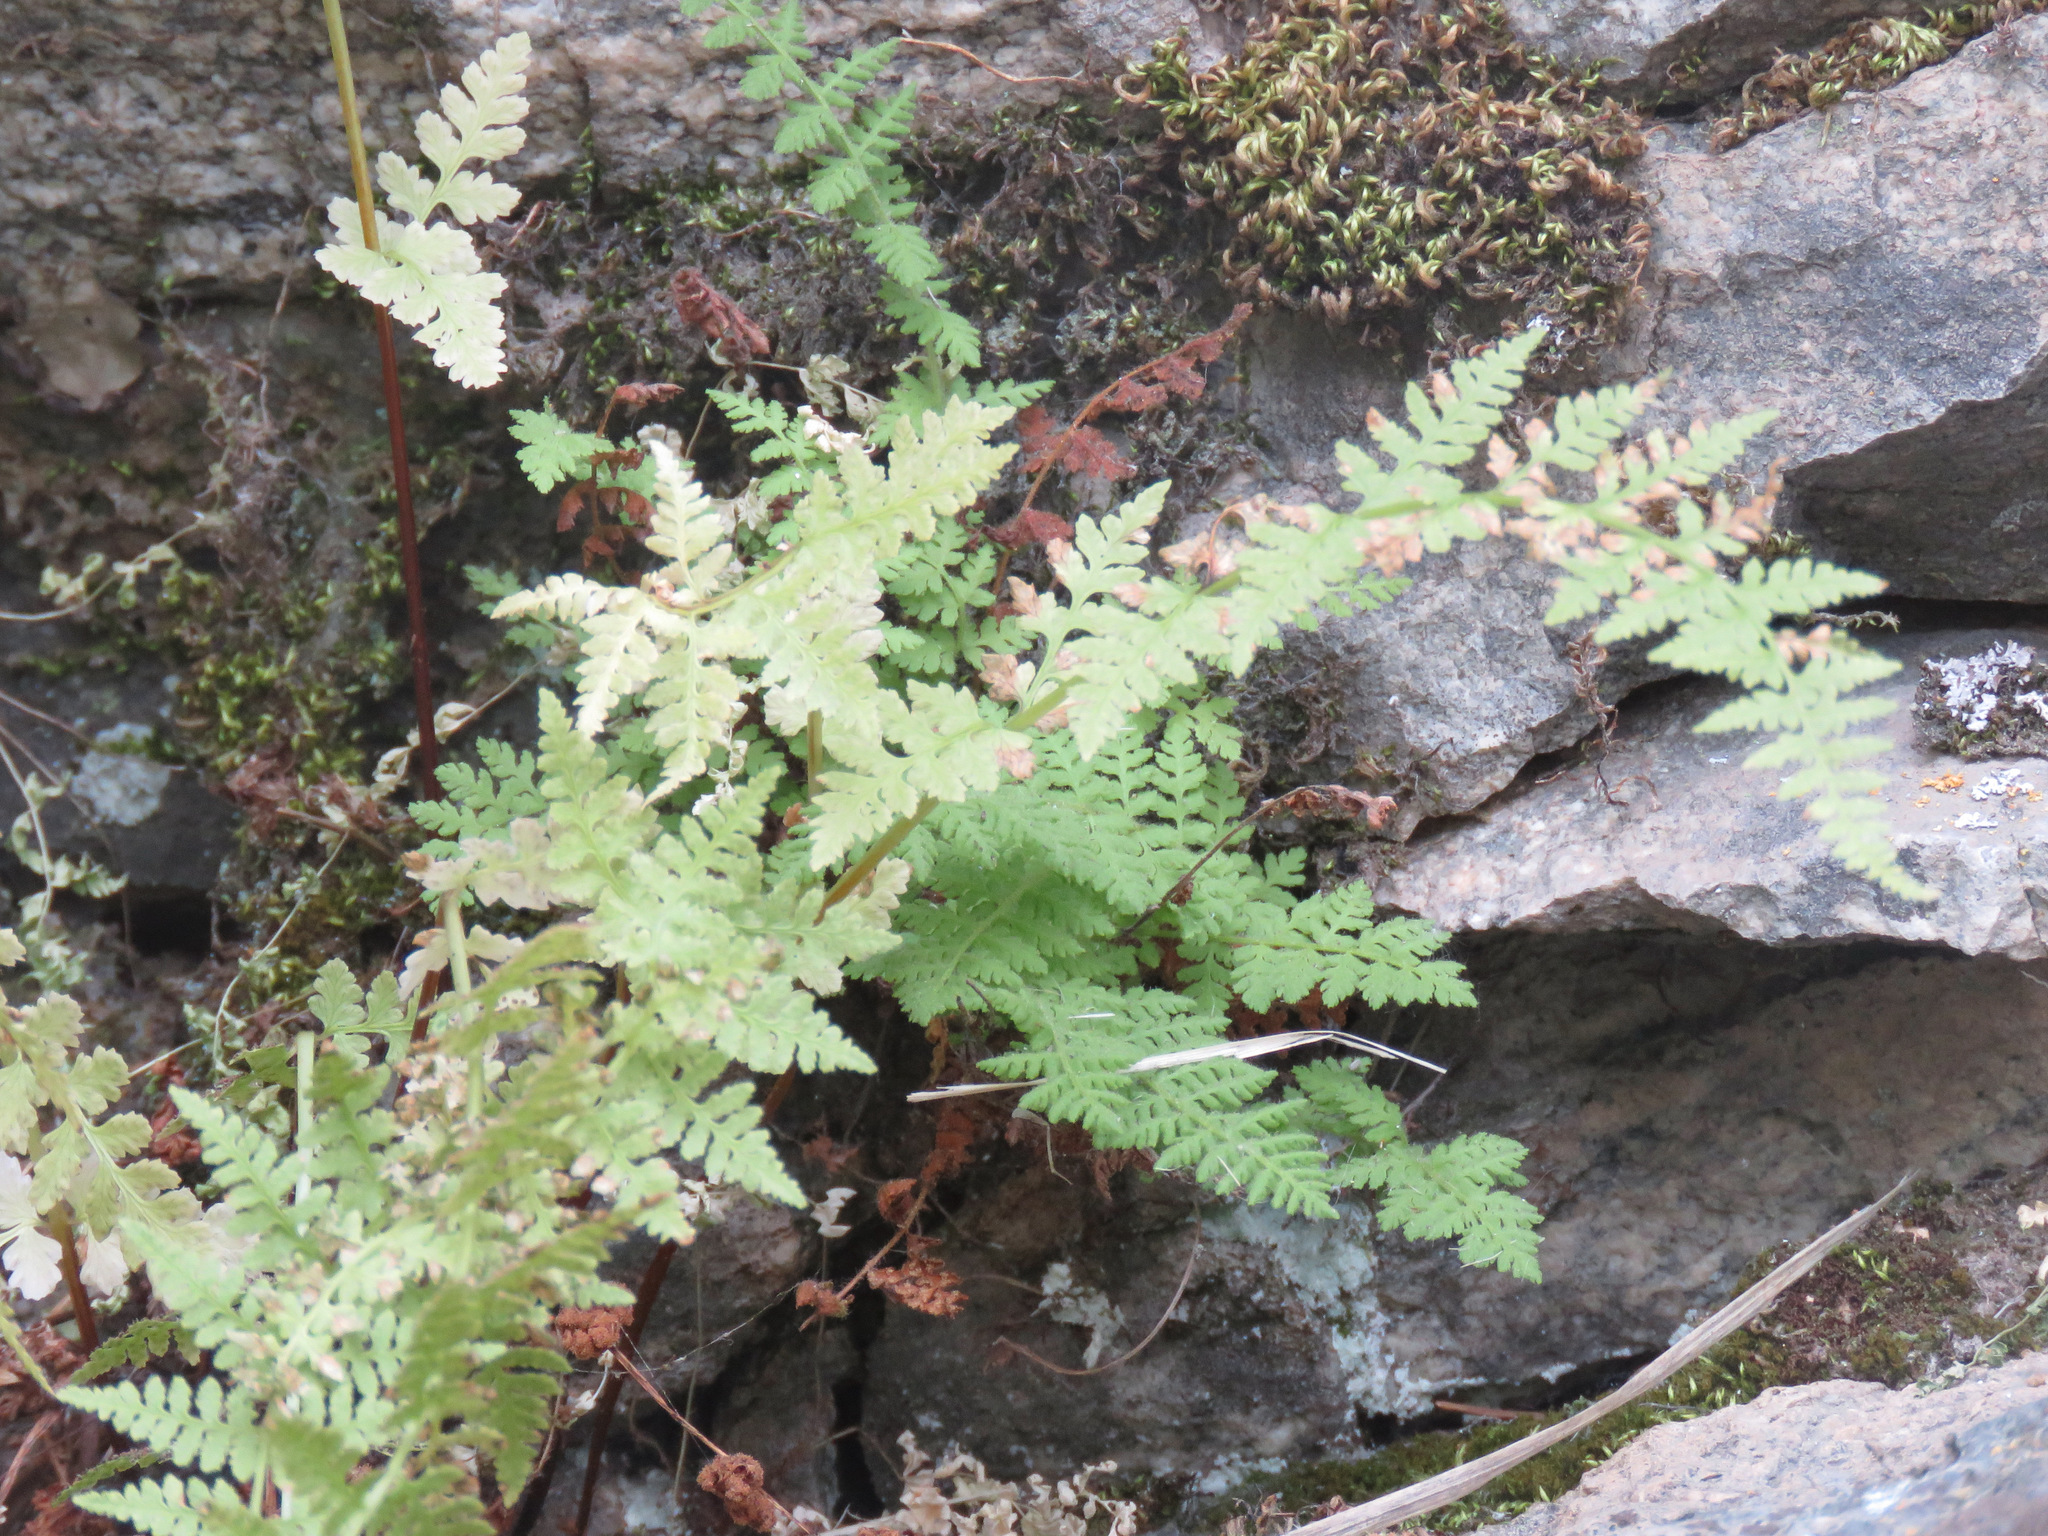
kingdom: Plantae
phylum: Tracheophyta
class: Polypodiopsida
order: Polypodiales
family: Cystopteridaceae
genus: Cystopteris
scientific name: Cystopteris fragilis
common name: Brittle bladder fern
